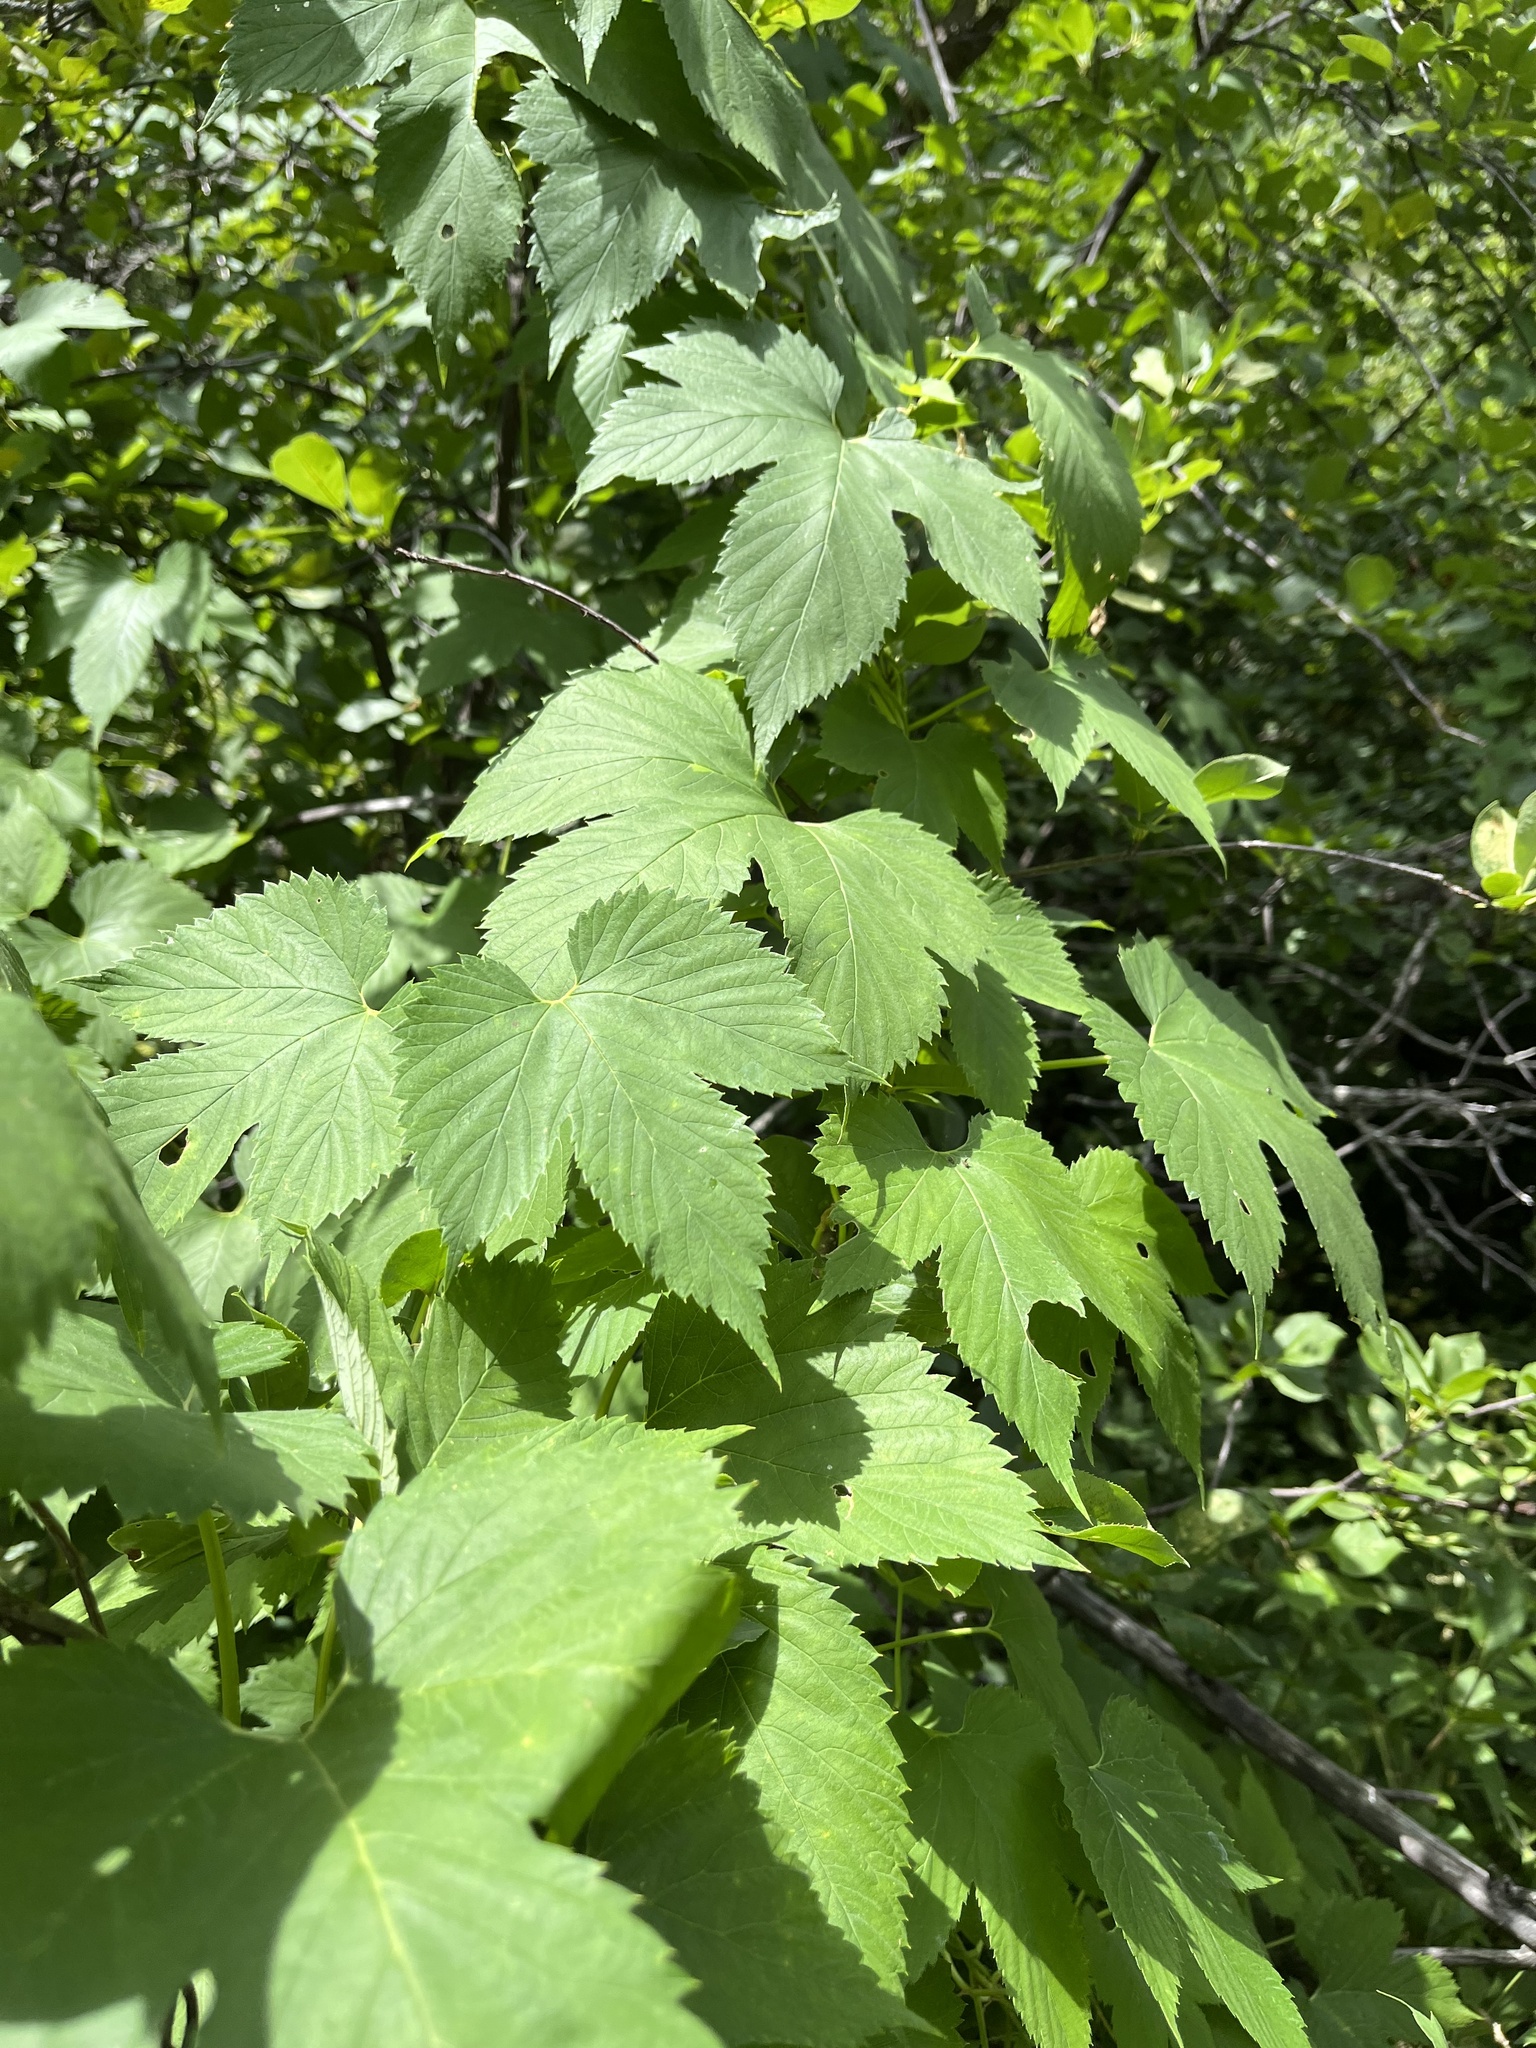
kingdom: Plantae
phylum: Tracheophyta
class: Magnoliopsida
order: Rosales
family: Cannabaceae
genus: Humulus
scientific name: Humulus lupulus
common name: Hop
